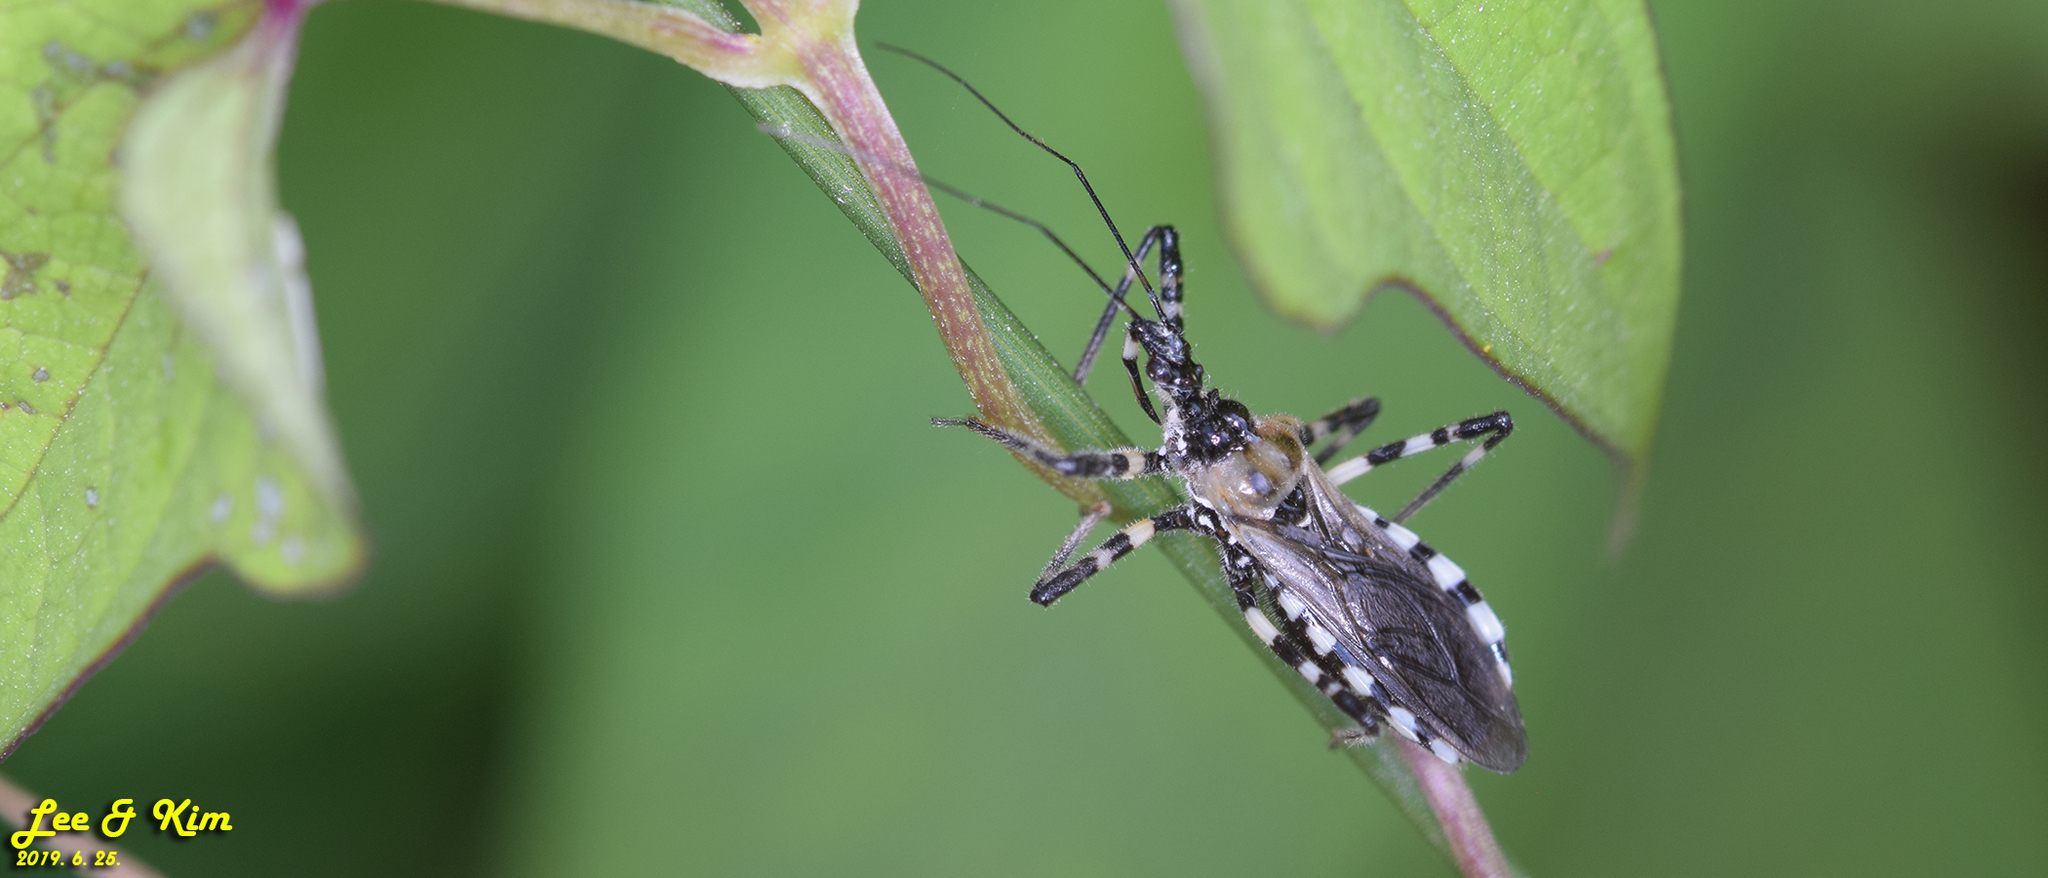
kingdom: Animalia
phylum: Arthropoda
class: Insecta
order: Hemiptera
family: Reduviidae
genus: Sphedanolestes
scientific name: Sphedanolestes impressicollis
